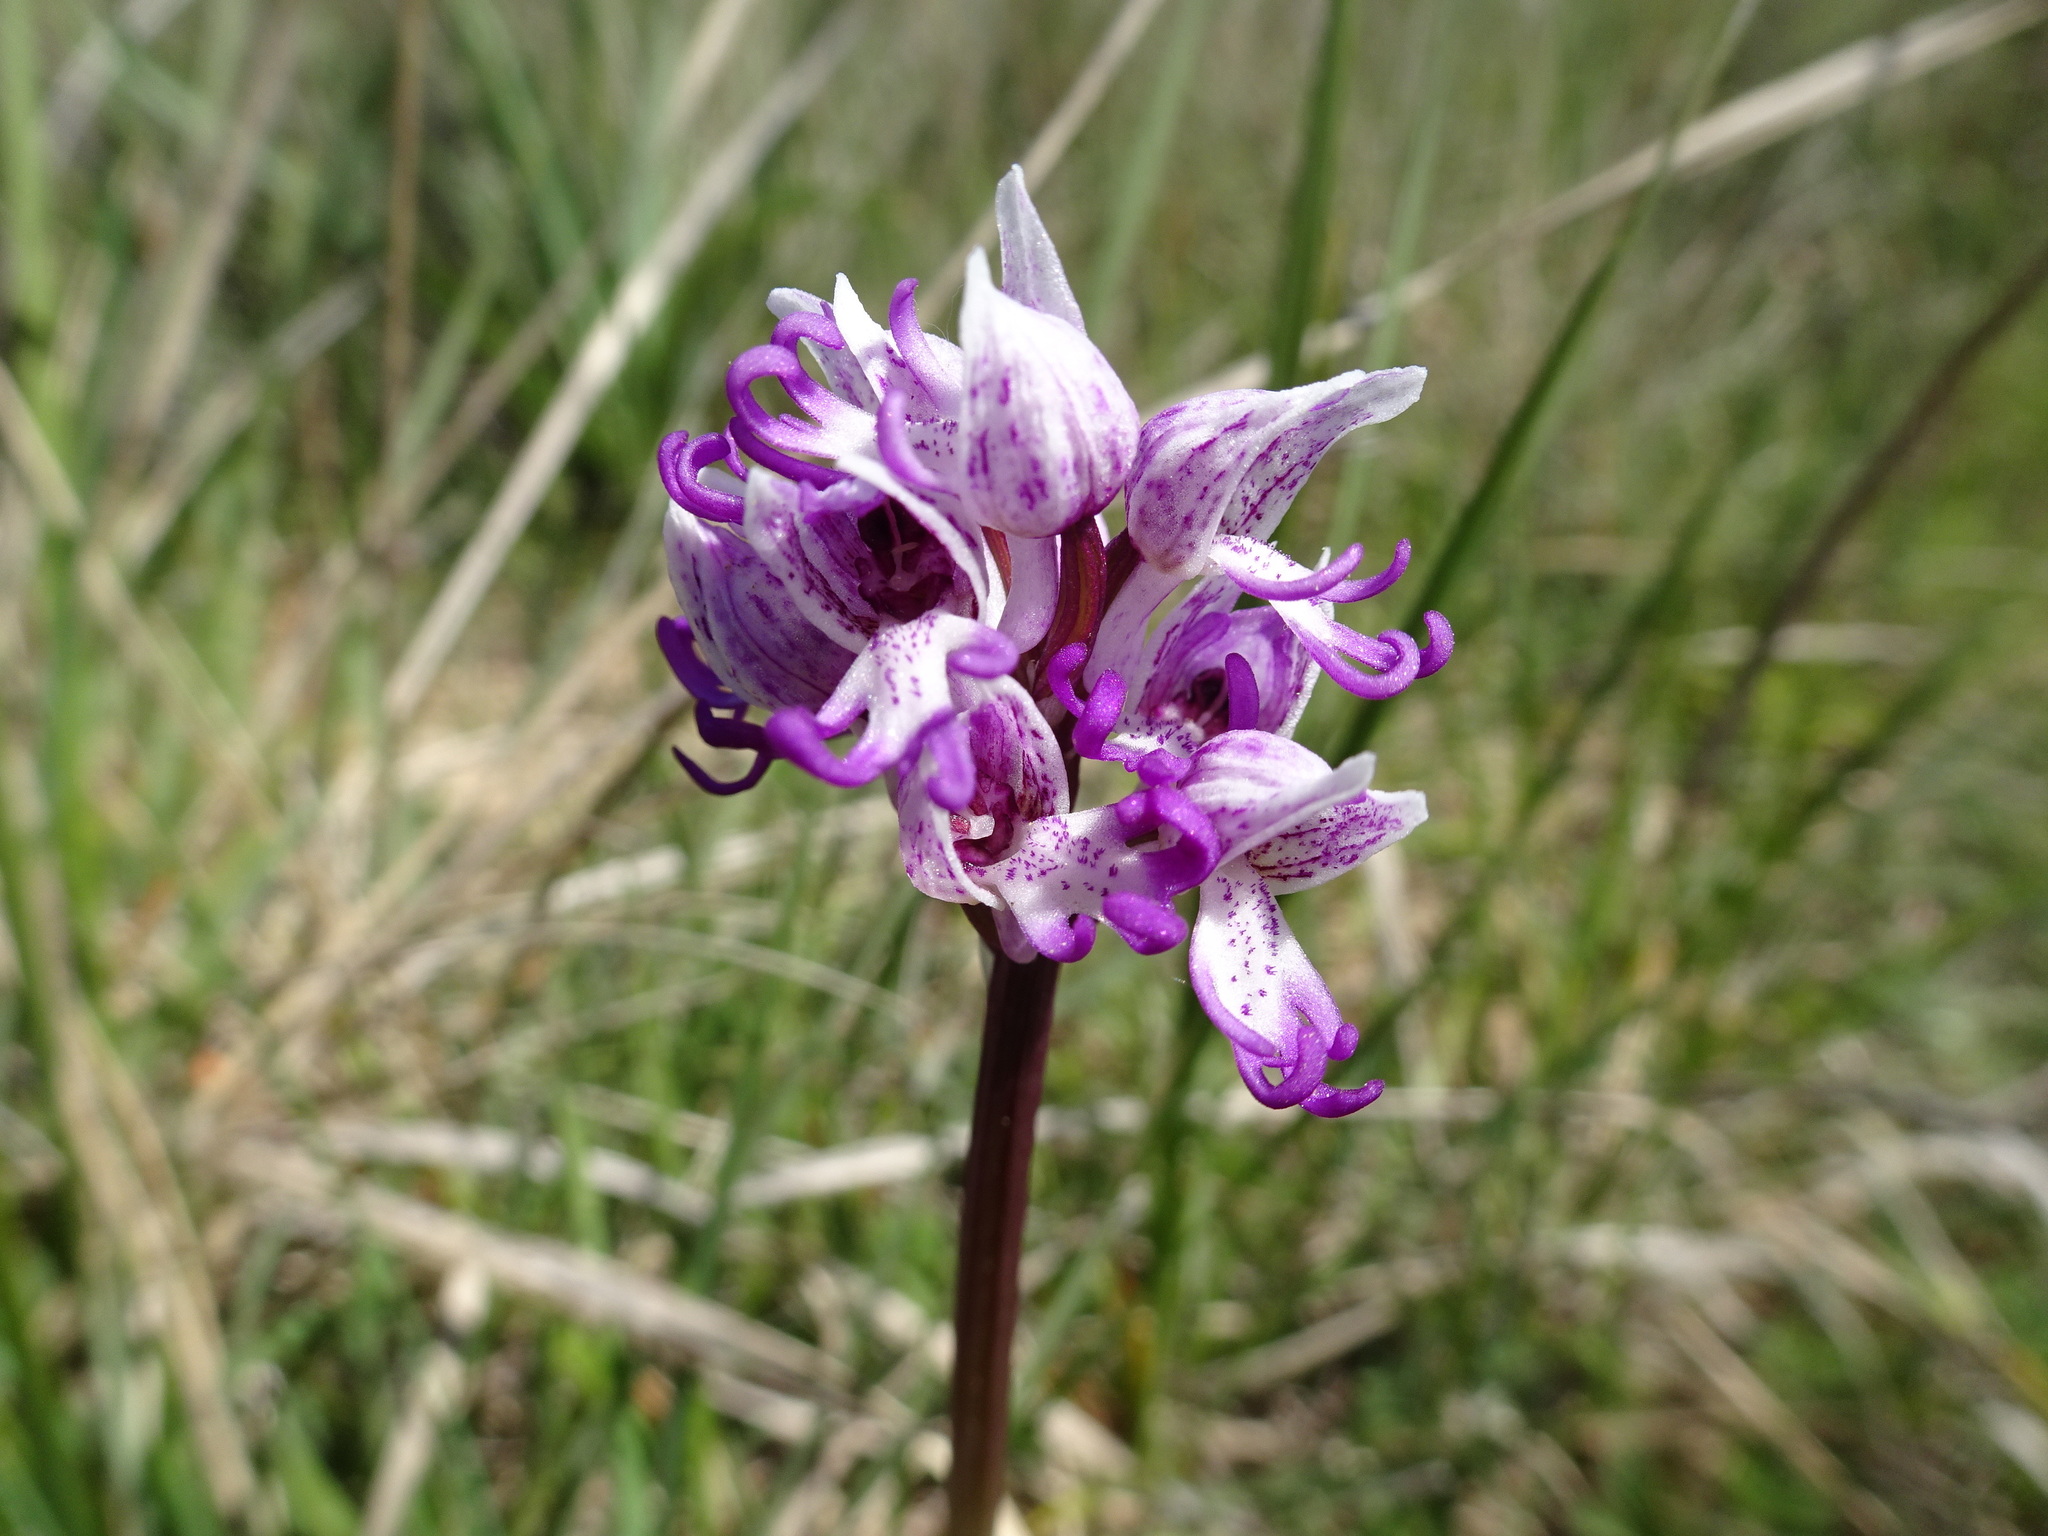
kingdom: Plantae
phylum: Tracheophyta
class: Liliopsida
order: Asparagales
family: Orchidaceae
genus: Orchis
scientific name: Orchis simia
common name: Monkey orchid
